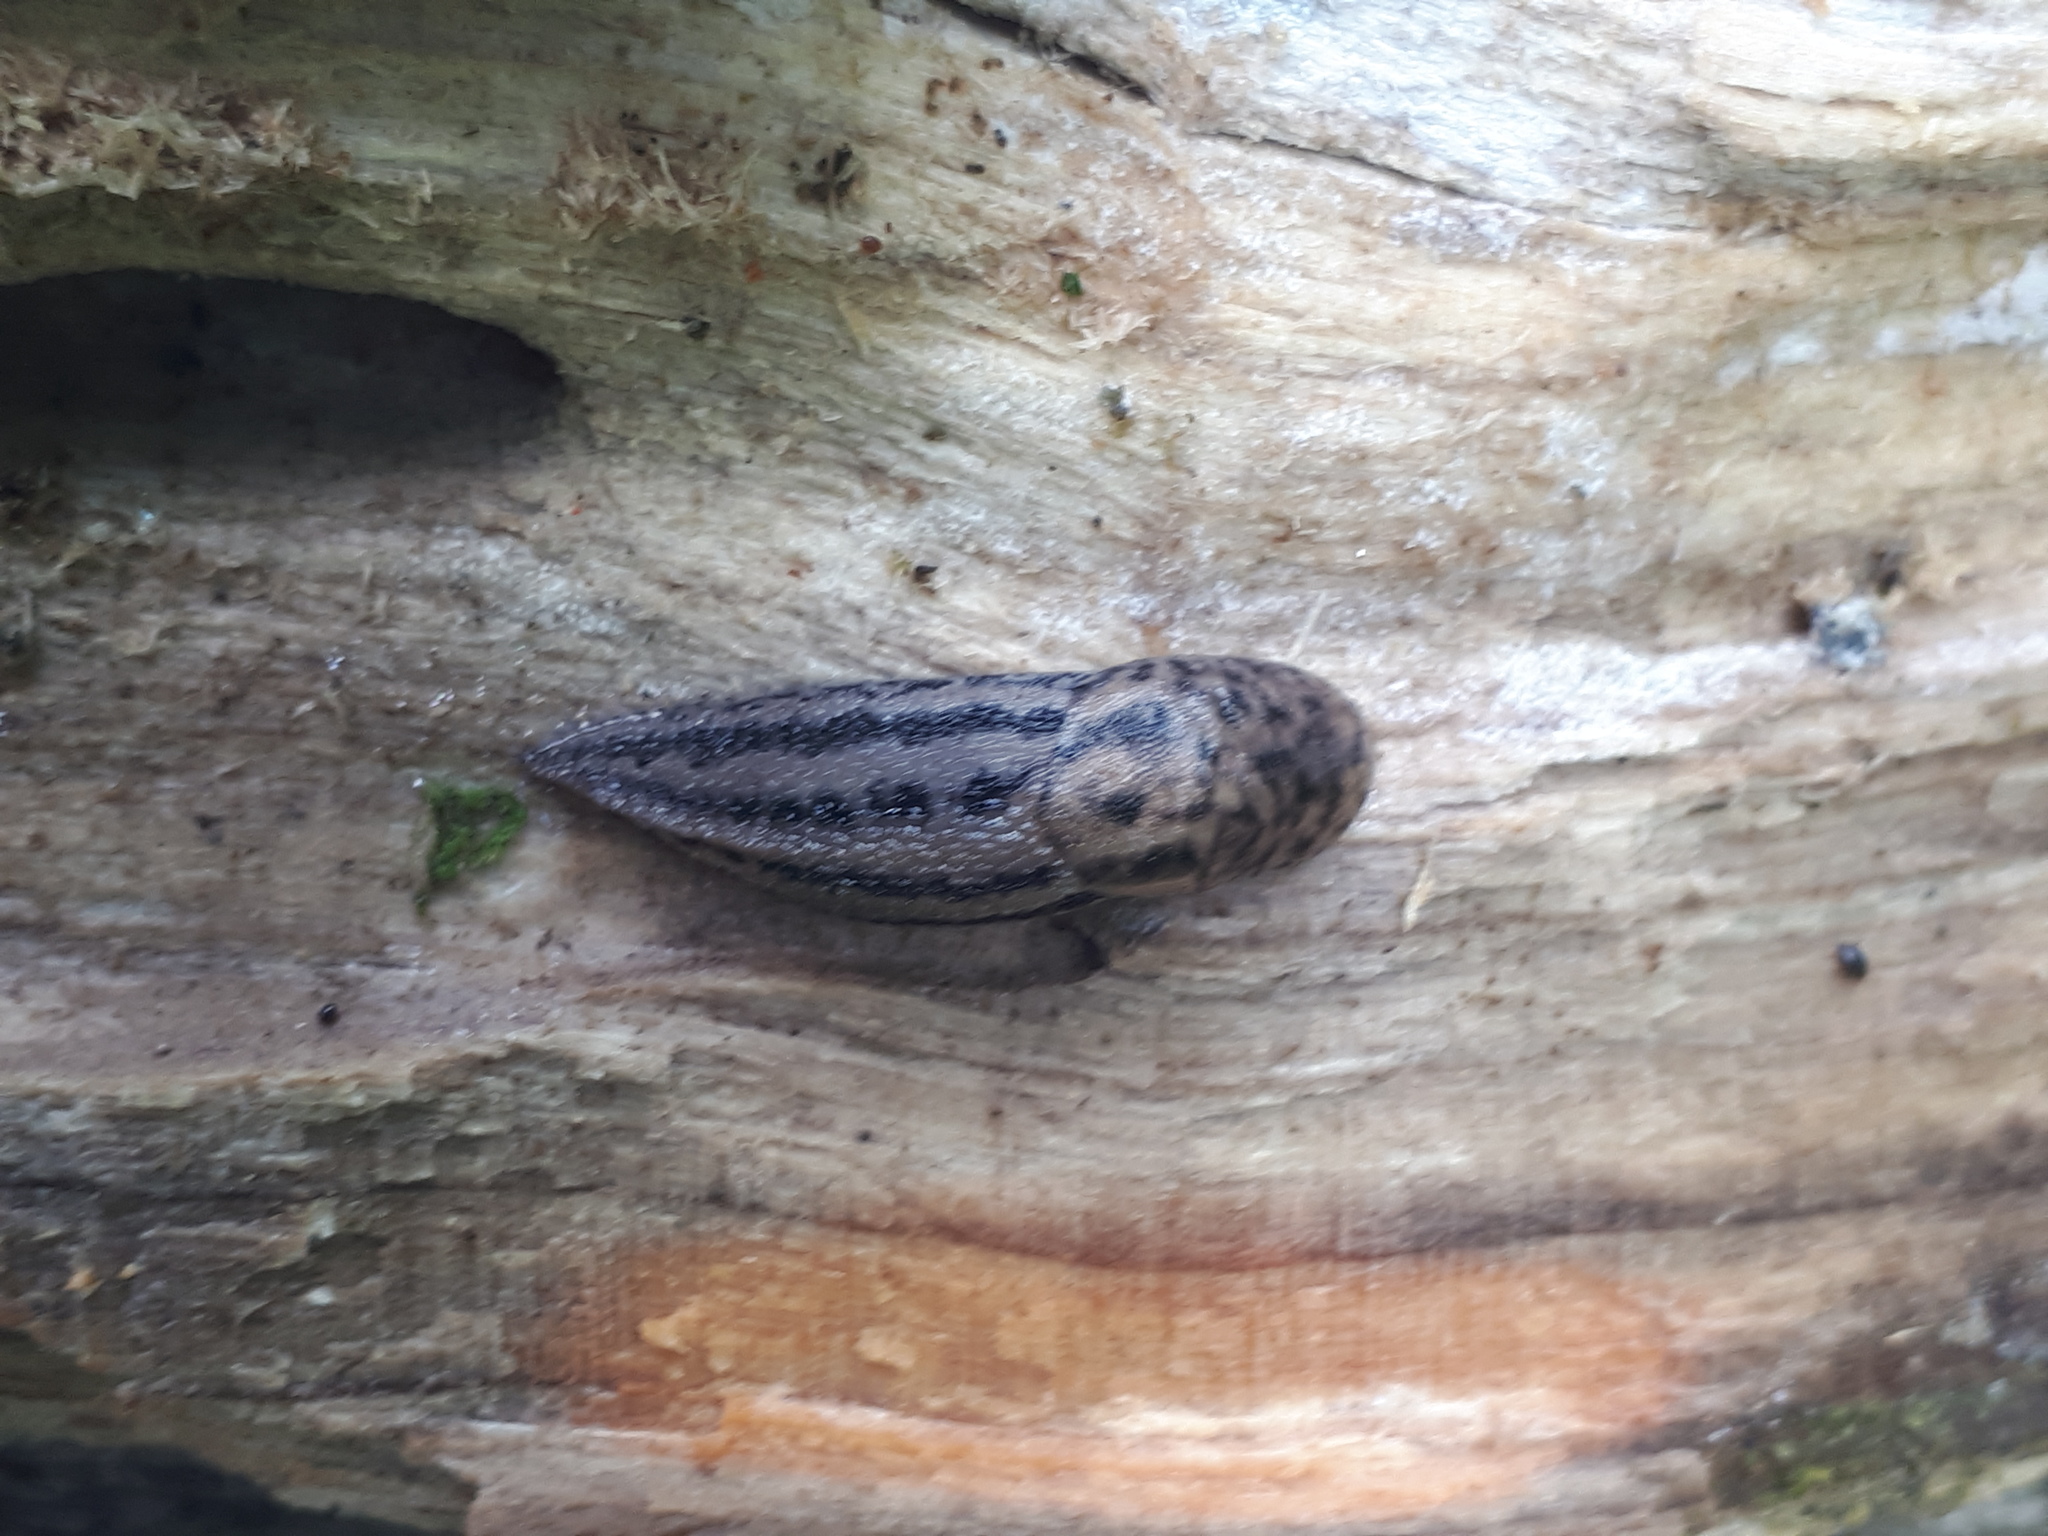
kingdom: Animalia
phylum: Mollusca
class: Gastropoda
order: Stylommatophora
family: Limacidae
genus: Limax
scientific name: Limax maximus
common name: Great grey slug
